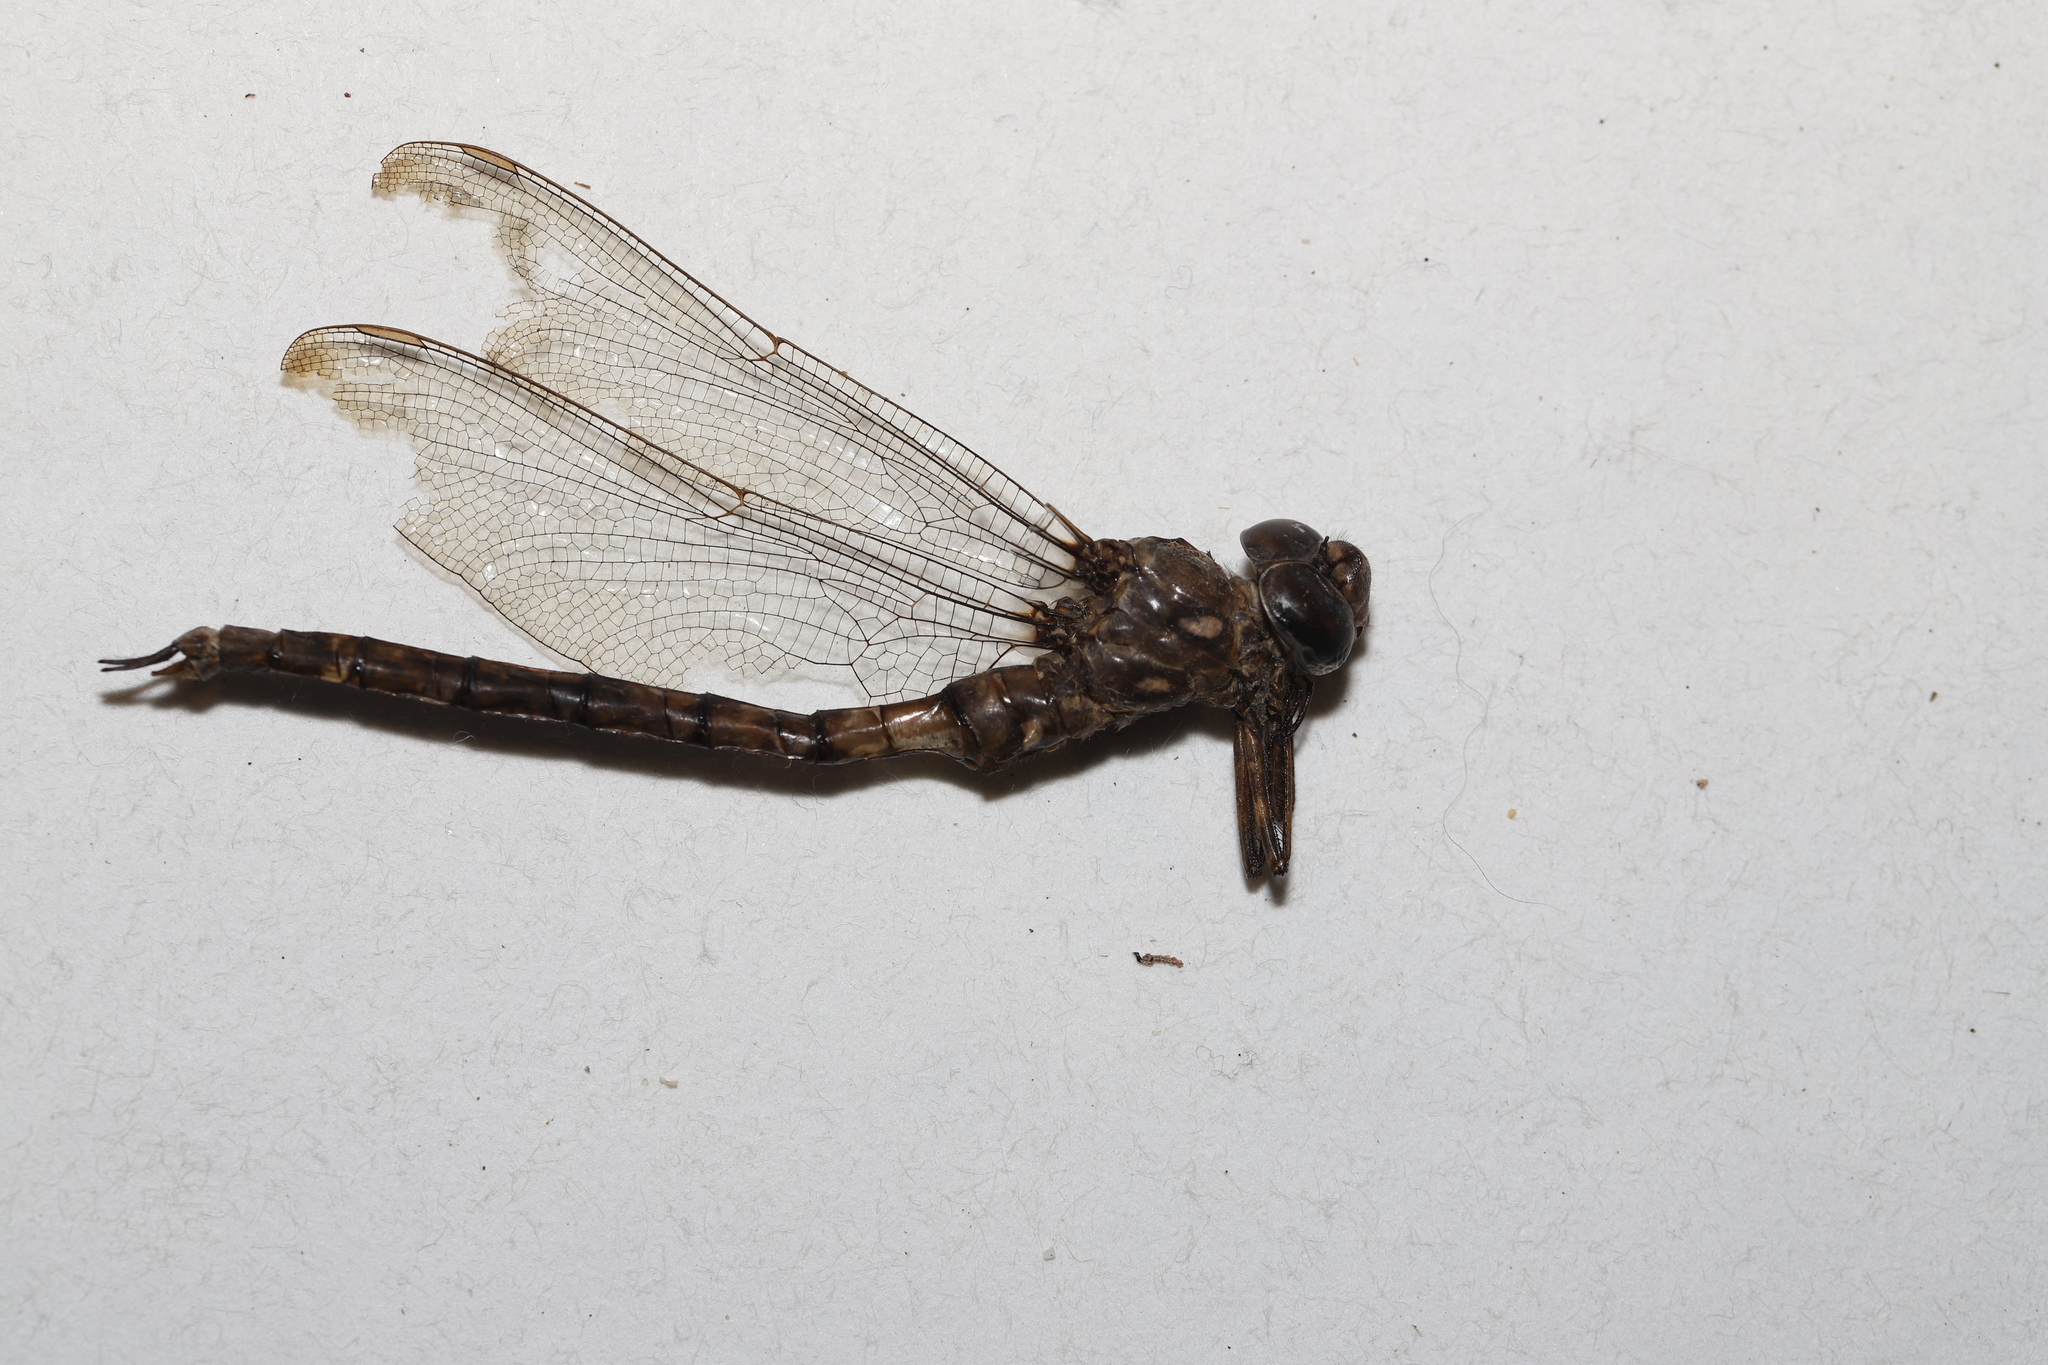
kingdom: Animalia
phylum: Arthropoda
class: Insecta
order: Odonata
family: Aeshnidae
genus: Boyeria
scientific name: Boyeria grafiana
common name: Ocellated darner
